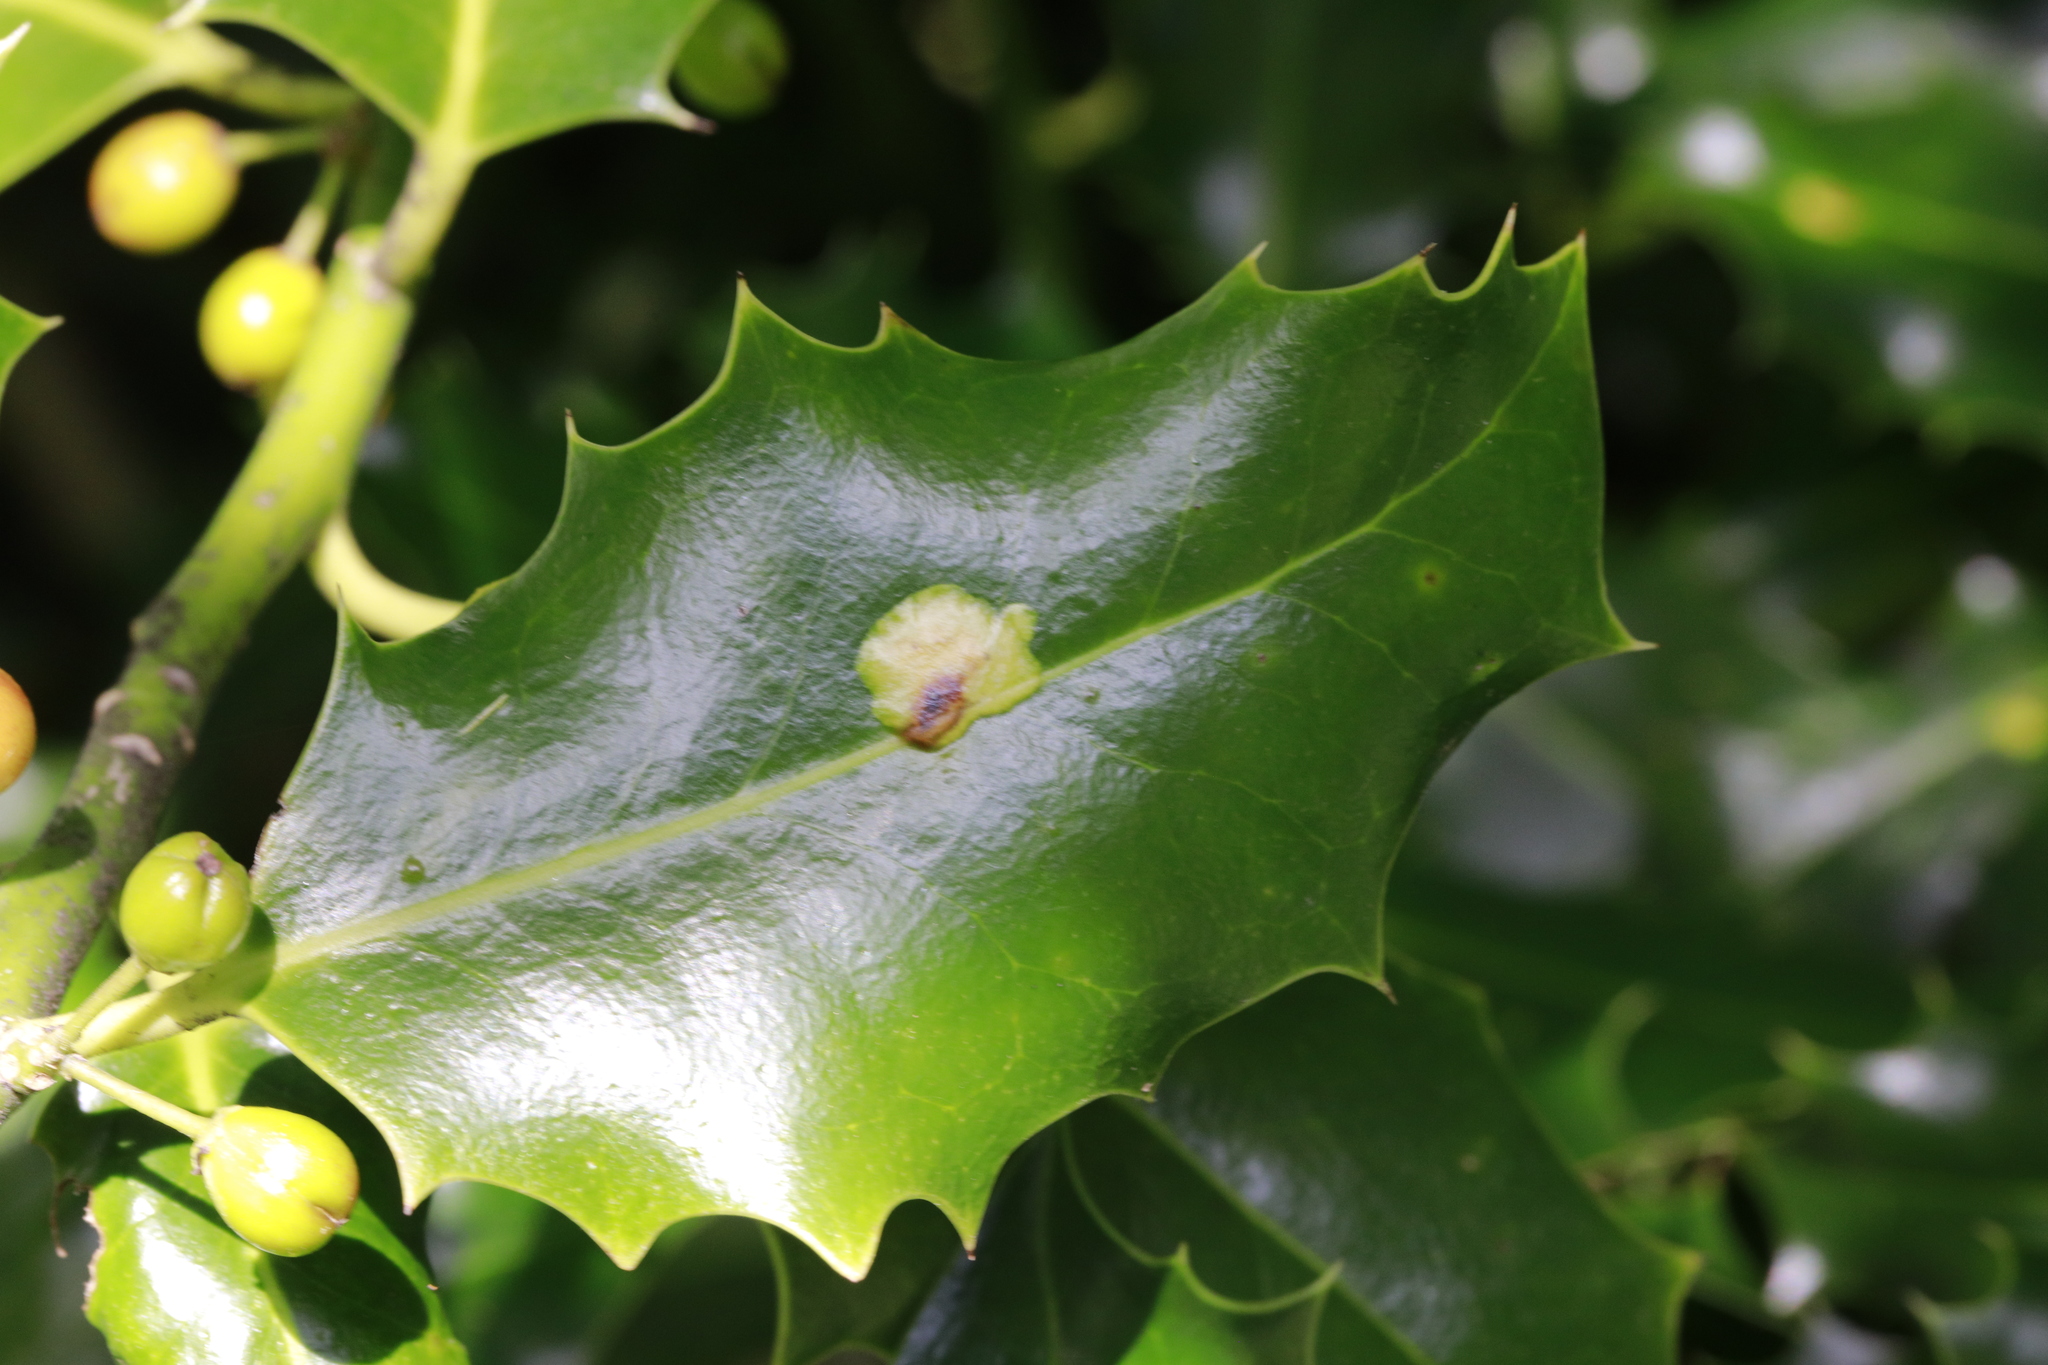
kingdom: Animalia
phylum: Arthropoda
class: Insecta
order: Diptera
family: Agromyzidae
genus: Phytomyza
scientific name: Phytomyza ilicis
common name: Holly leafminer
